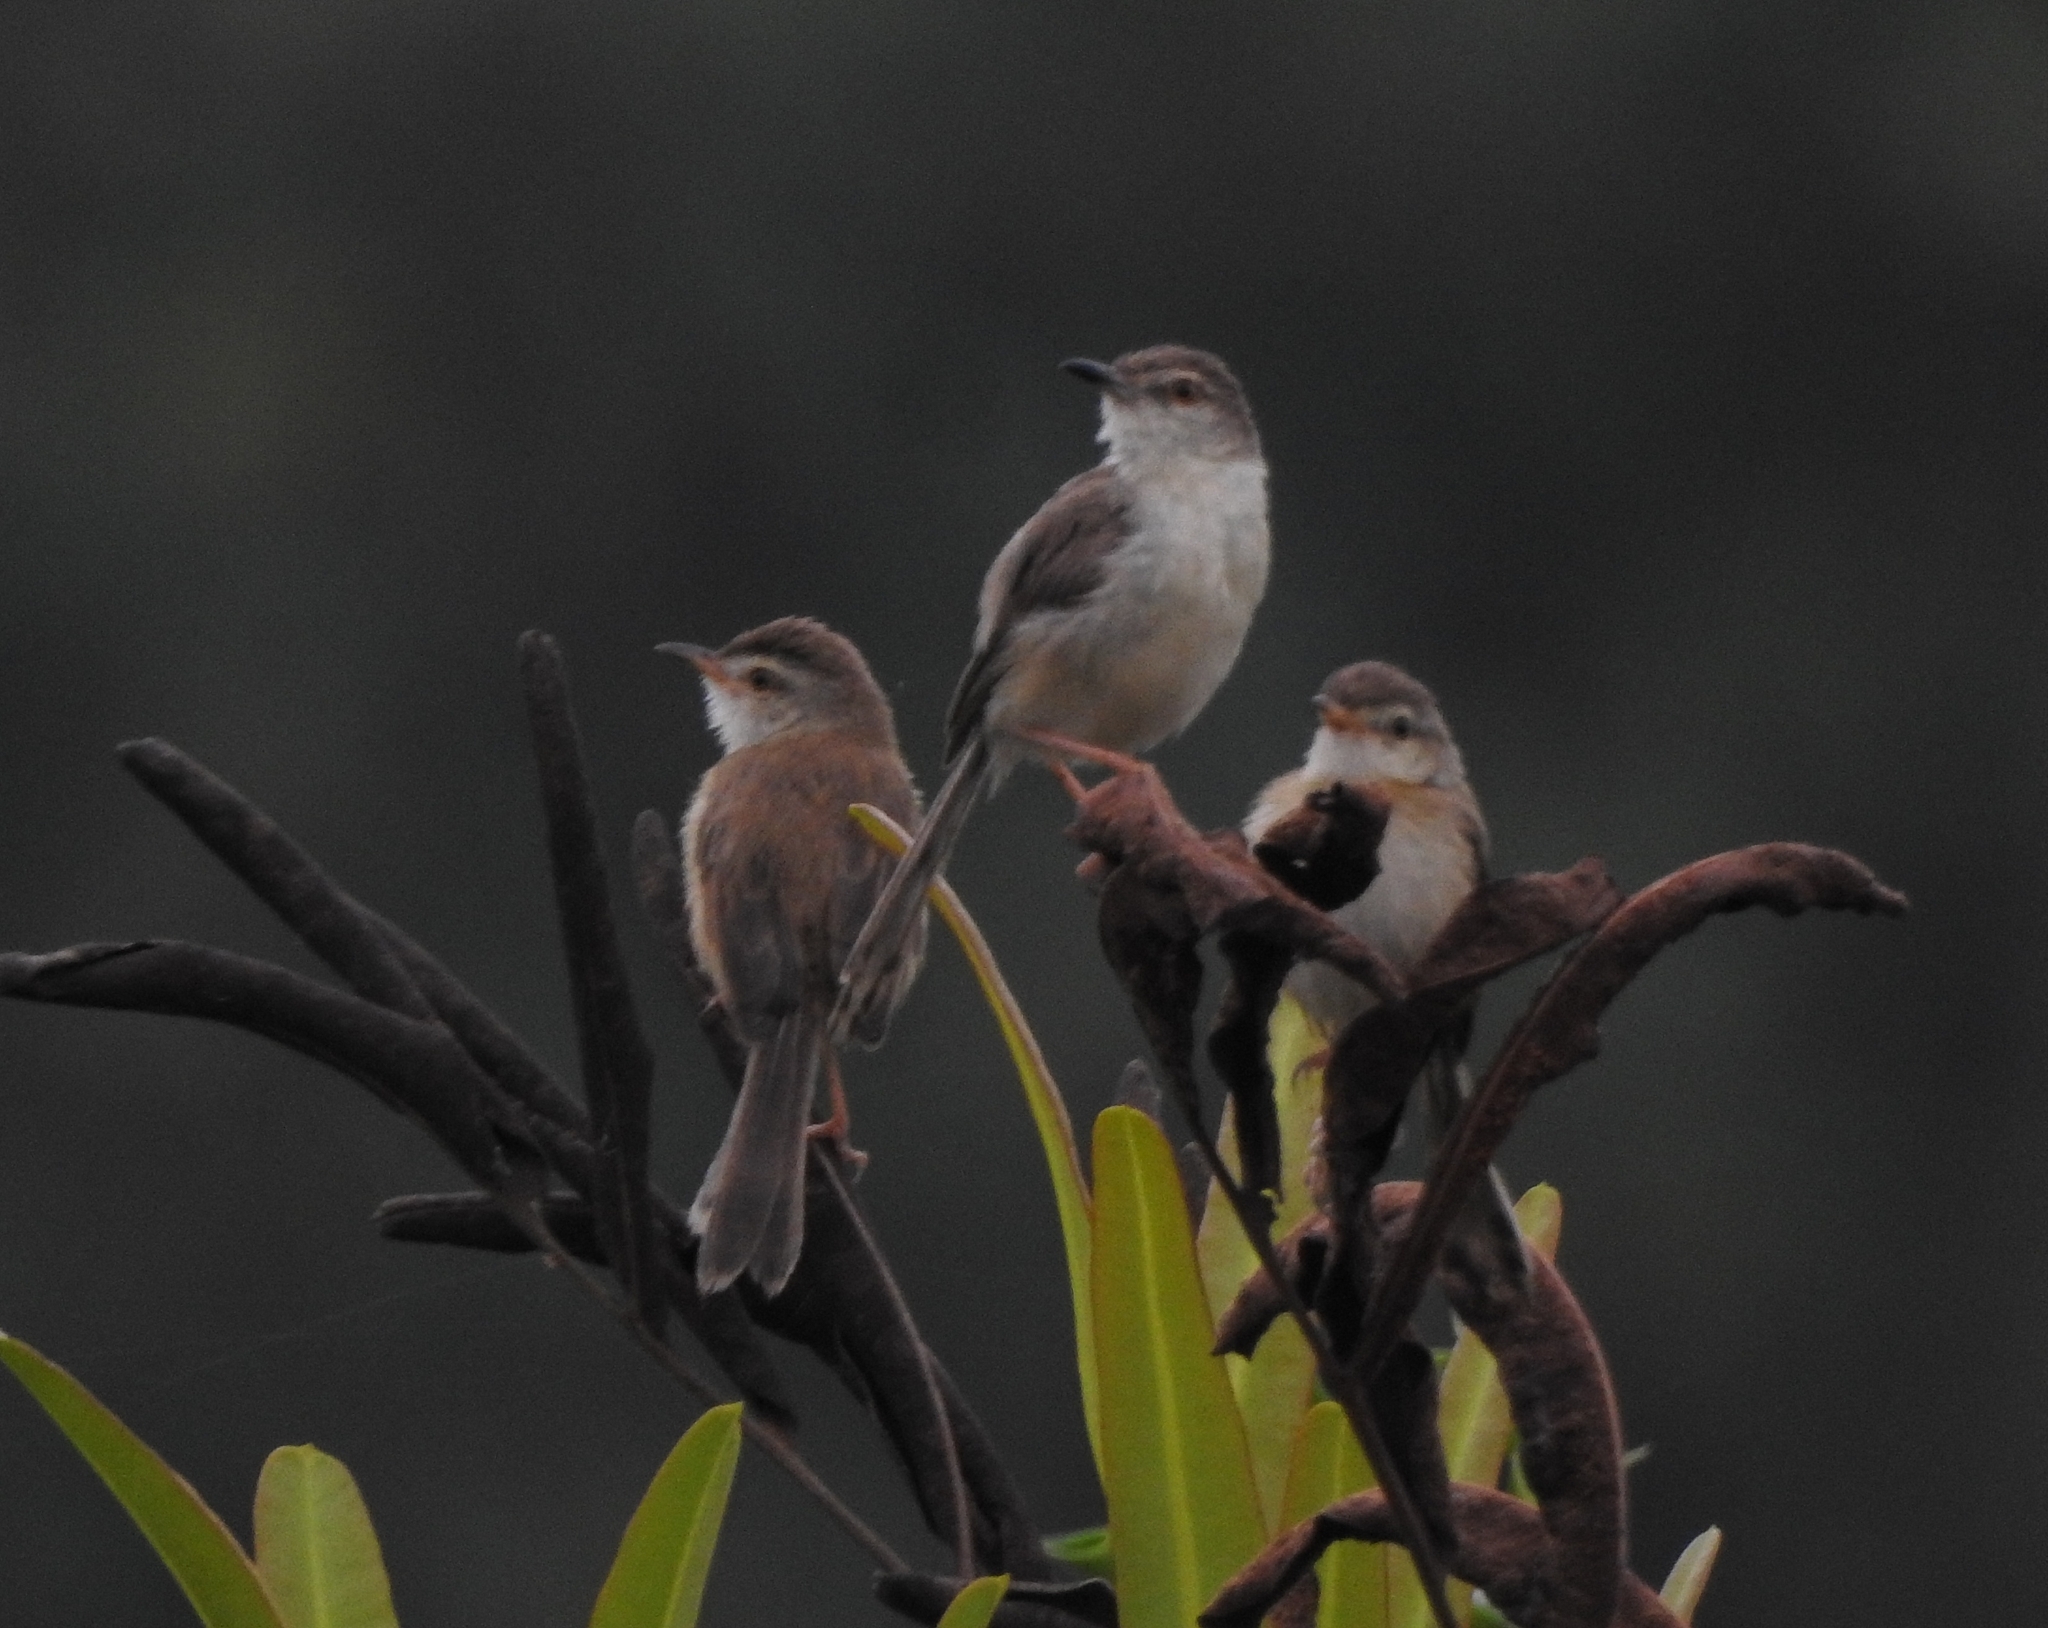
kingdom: Animalia
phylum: Chordata
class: Aves
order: Passeriformes
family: Cisticolidae
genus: Prinia
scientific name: Prinia inornata
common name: Plain prinia
